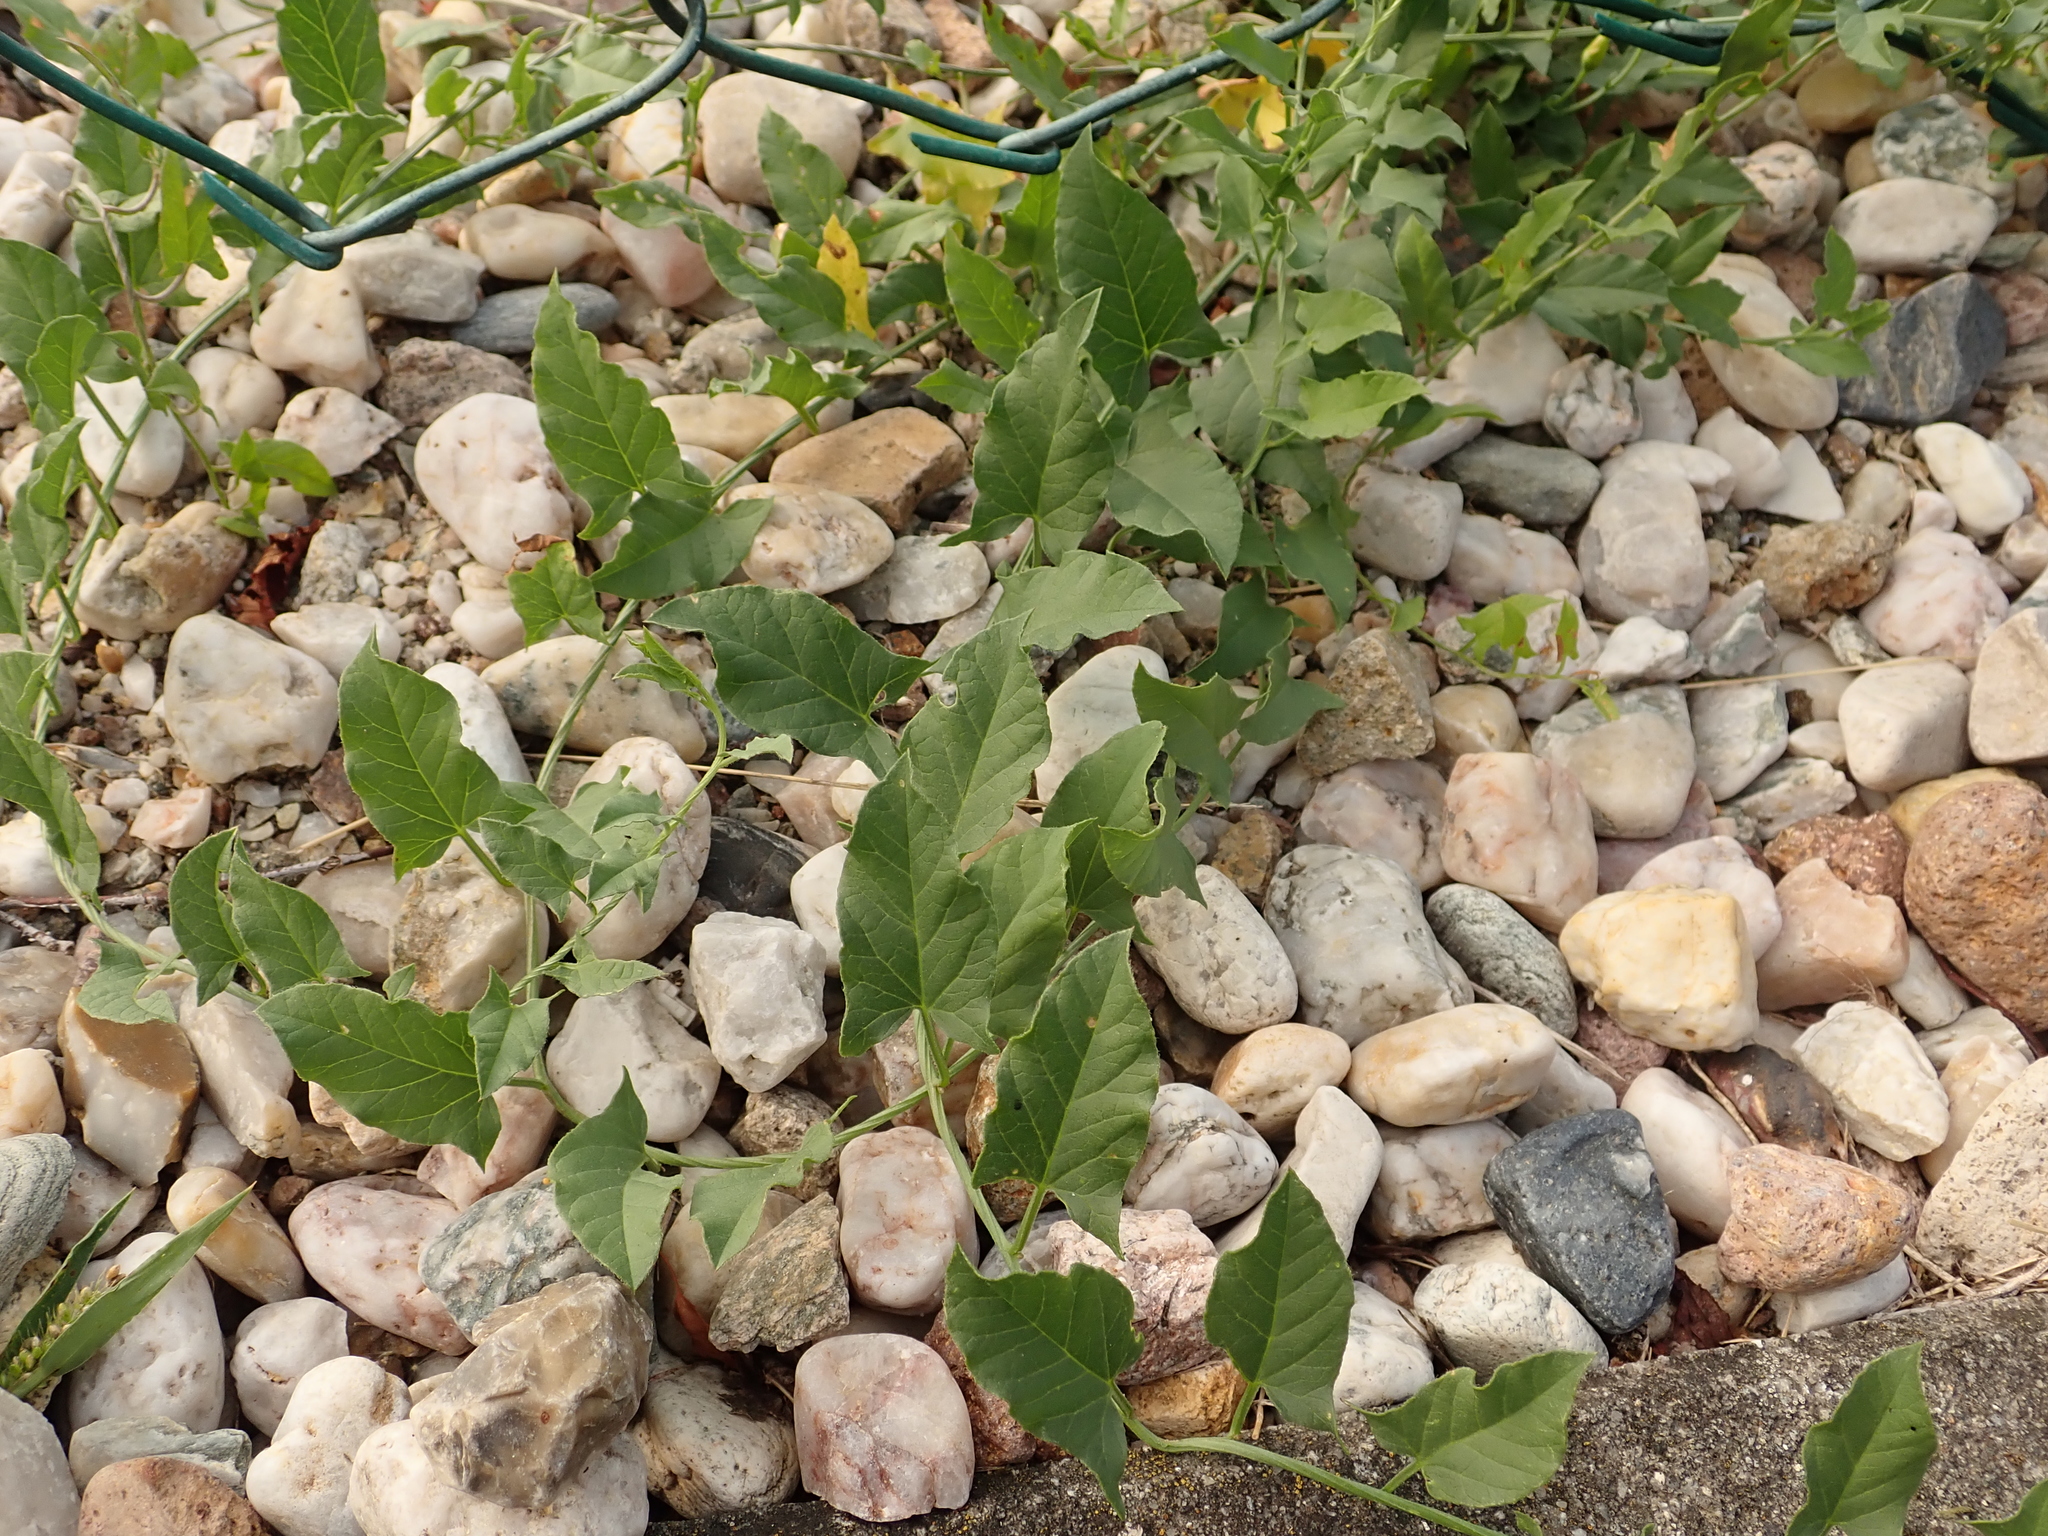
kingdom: Plantae
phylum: Tracheophyta
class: Magnoliopsida
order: Solanales
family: Convolvulaceae
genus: Convolvulus
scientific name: Convolvulus arvensis
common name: Field bindweed
